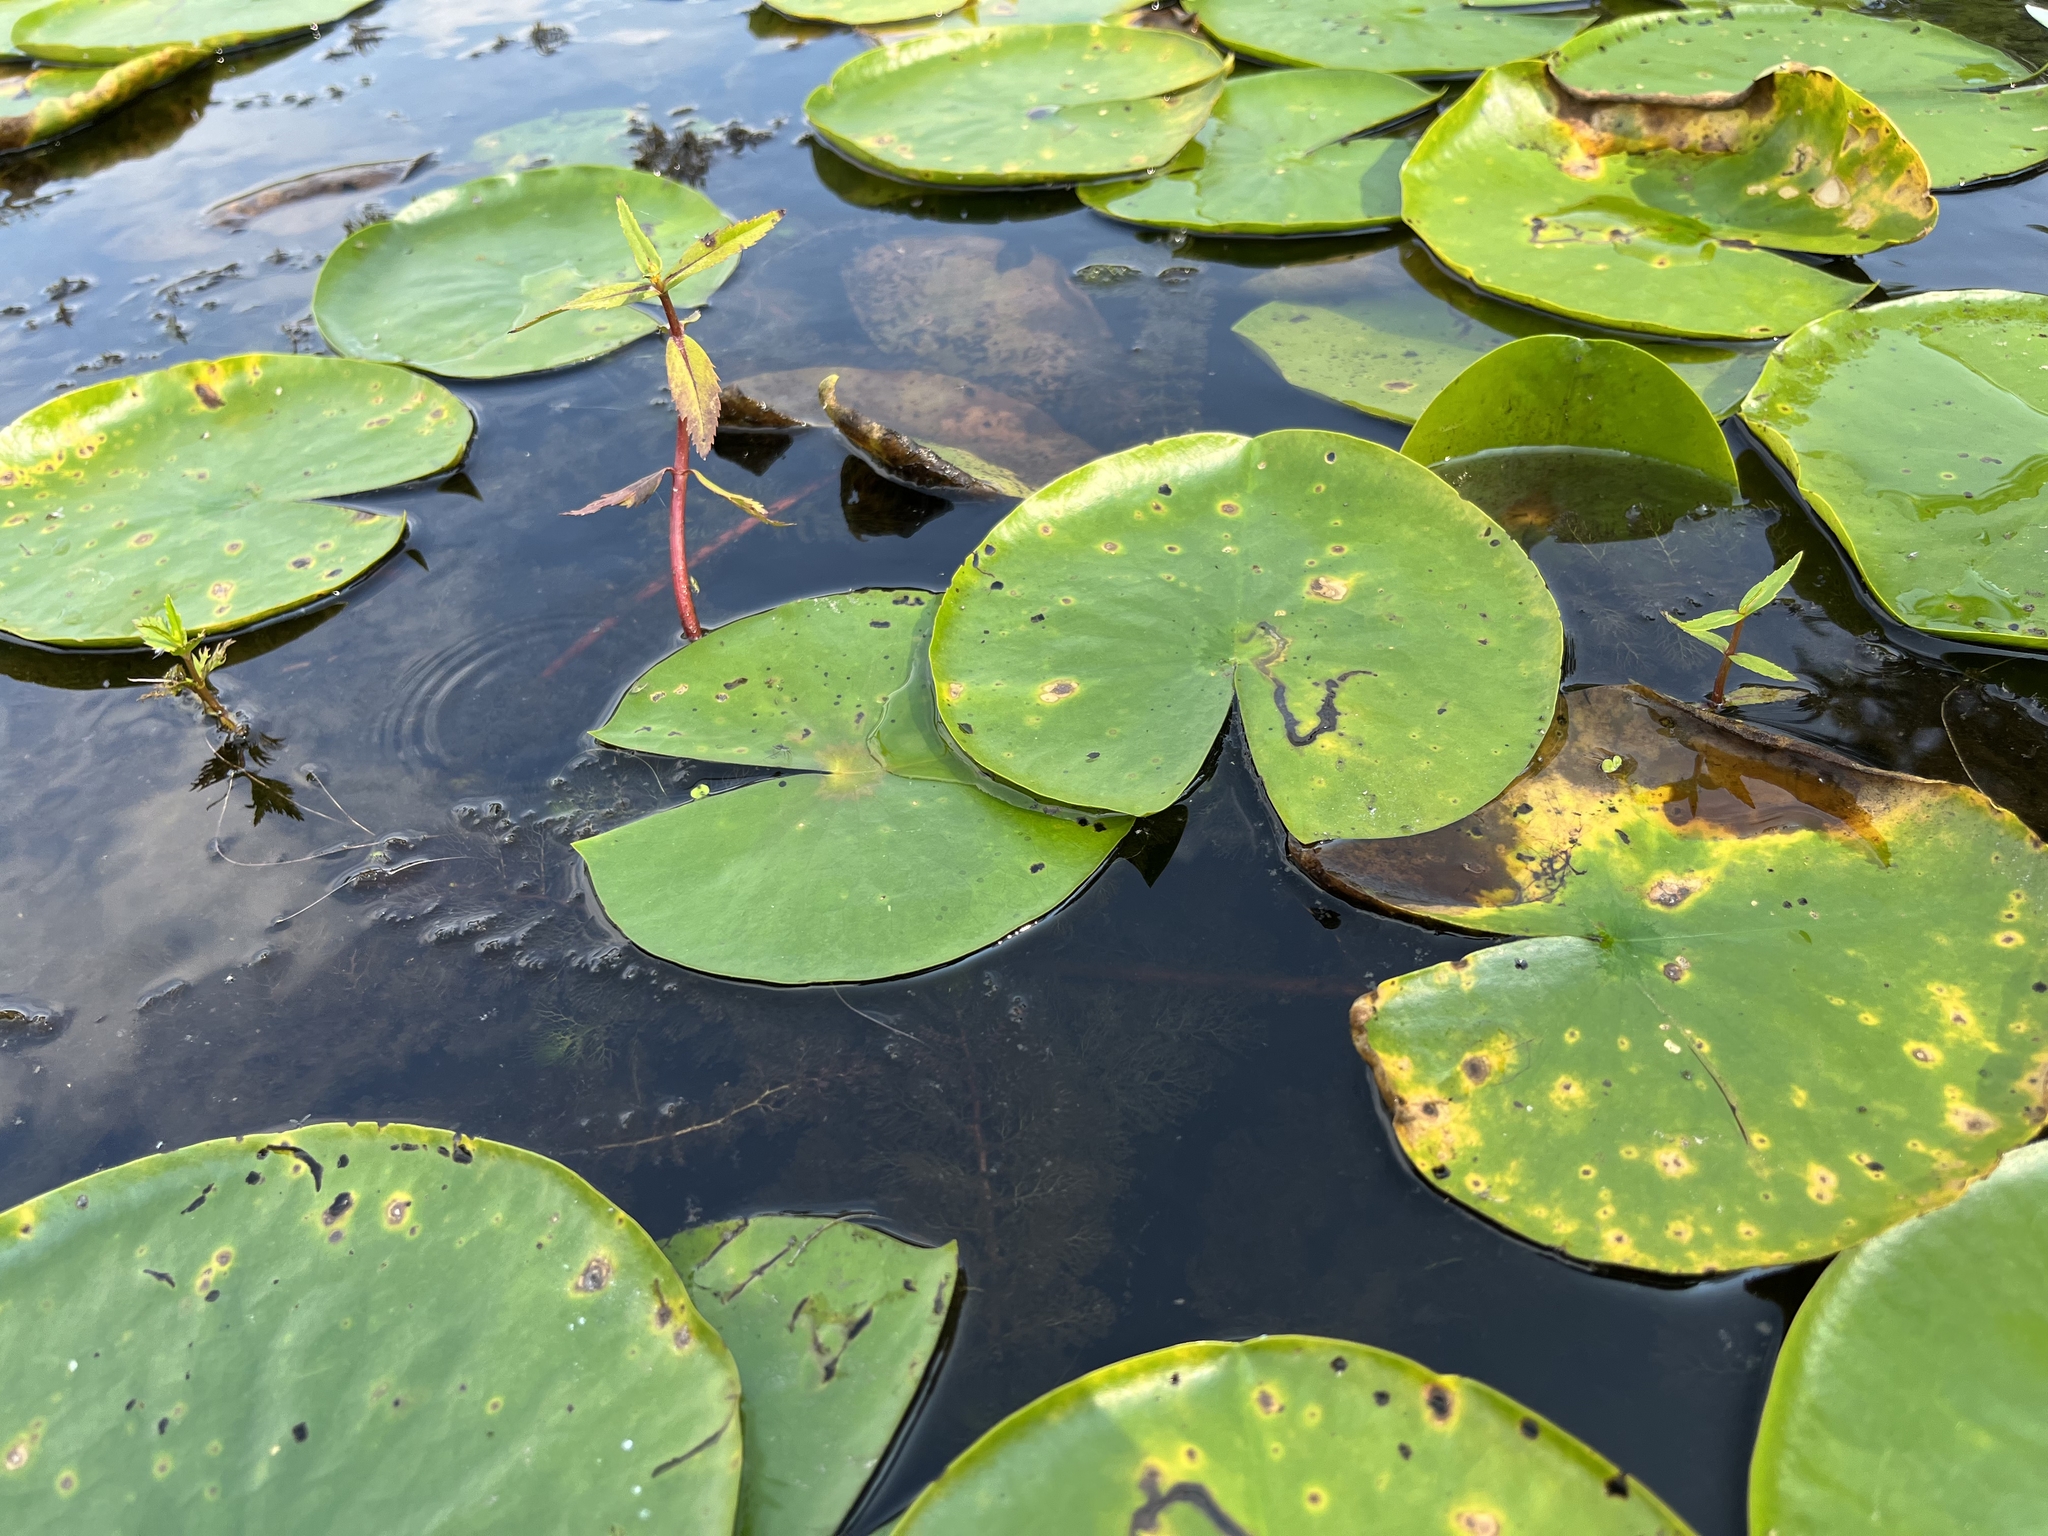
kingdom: Plantae
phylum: Tracheophyta
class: Magnoliopsida
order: Asterales
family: Asteraceae
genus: Bidens
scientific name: Bidens beckii
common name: Beck's beggarticks
